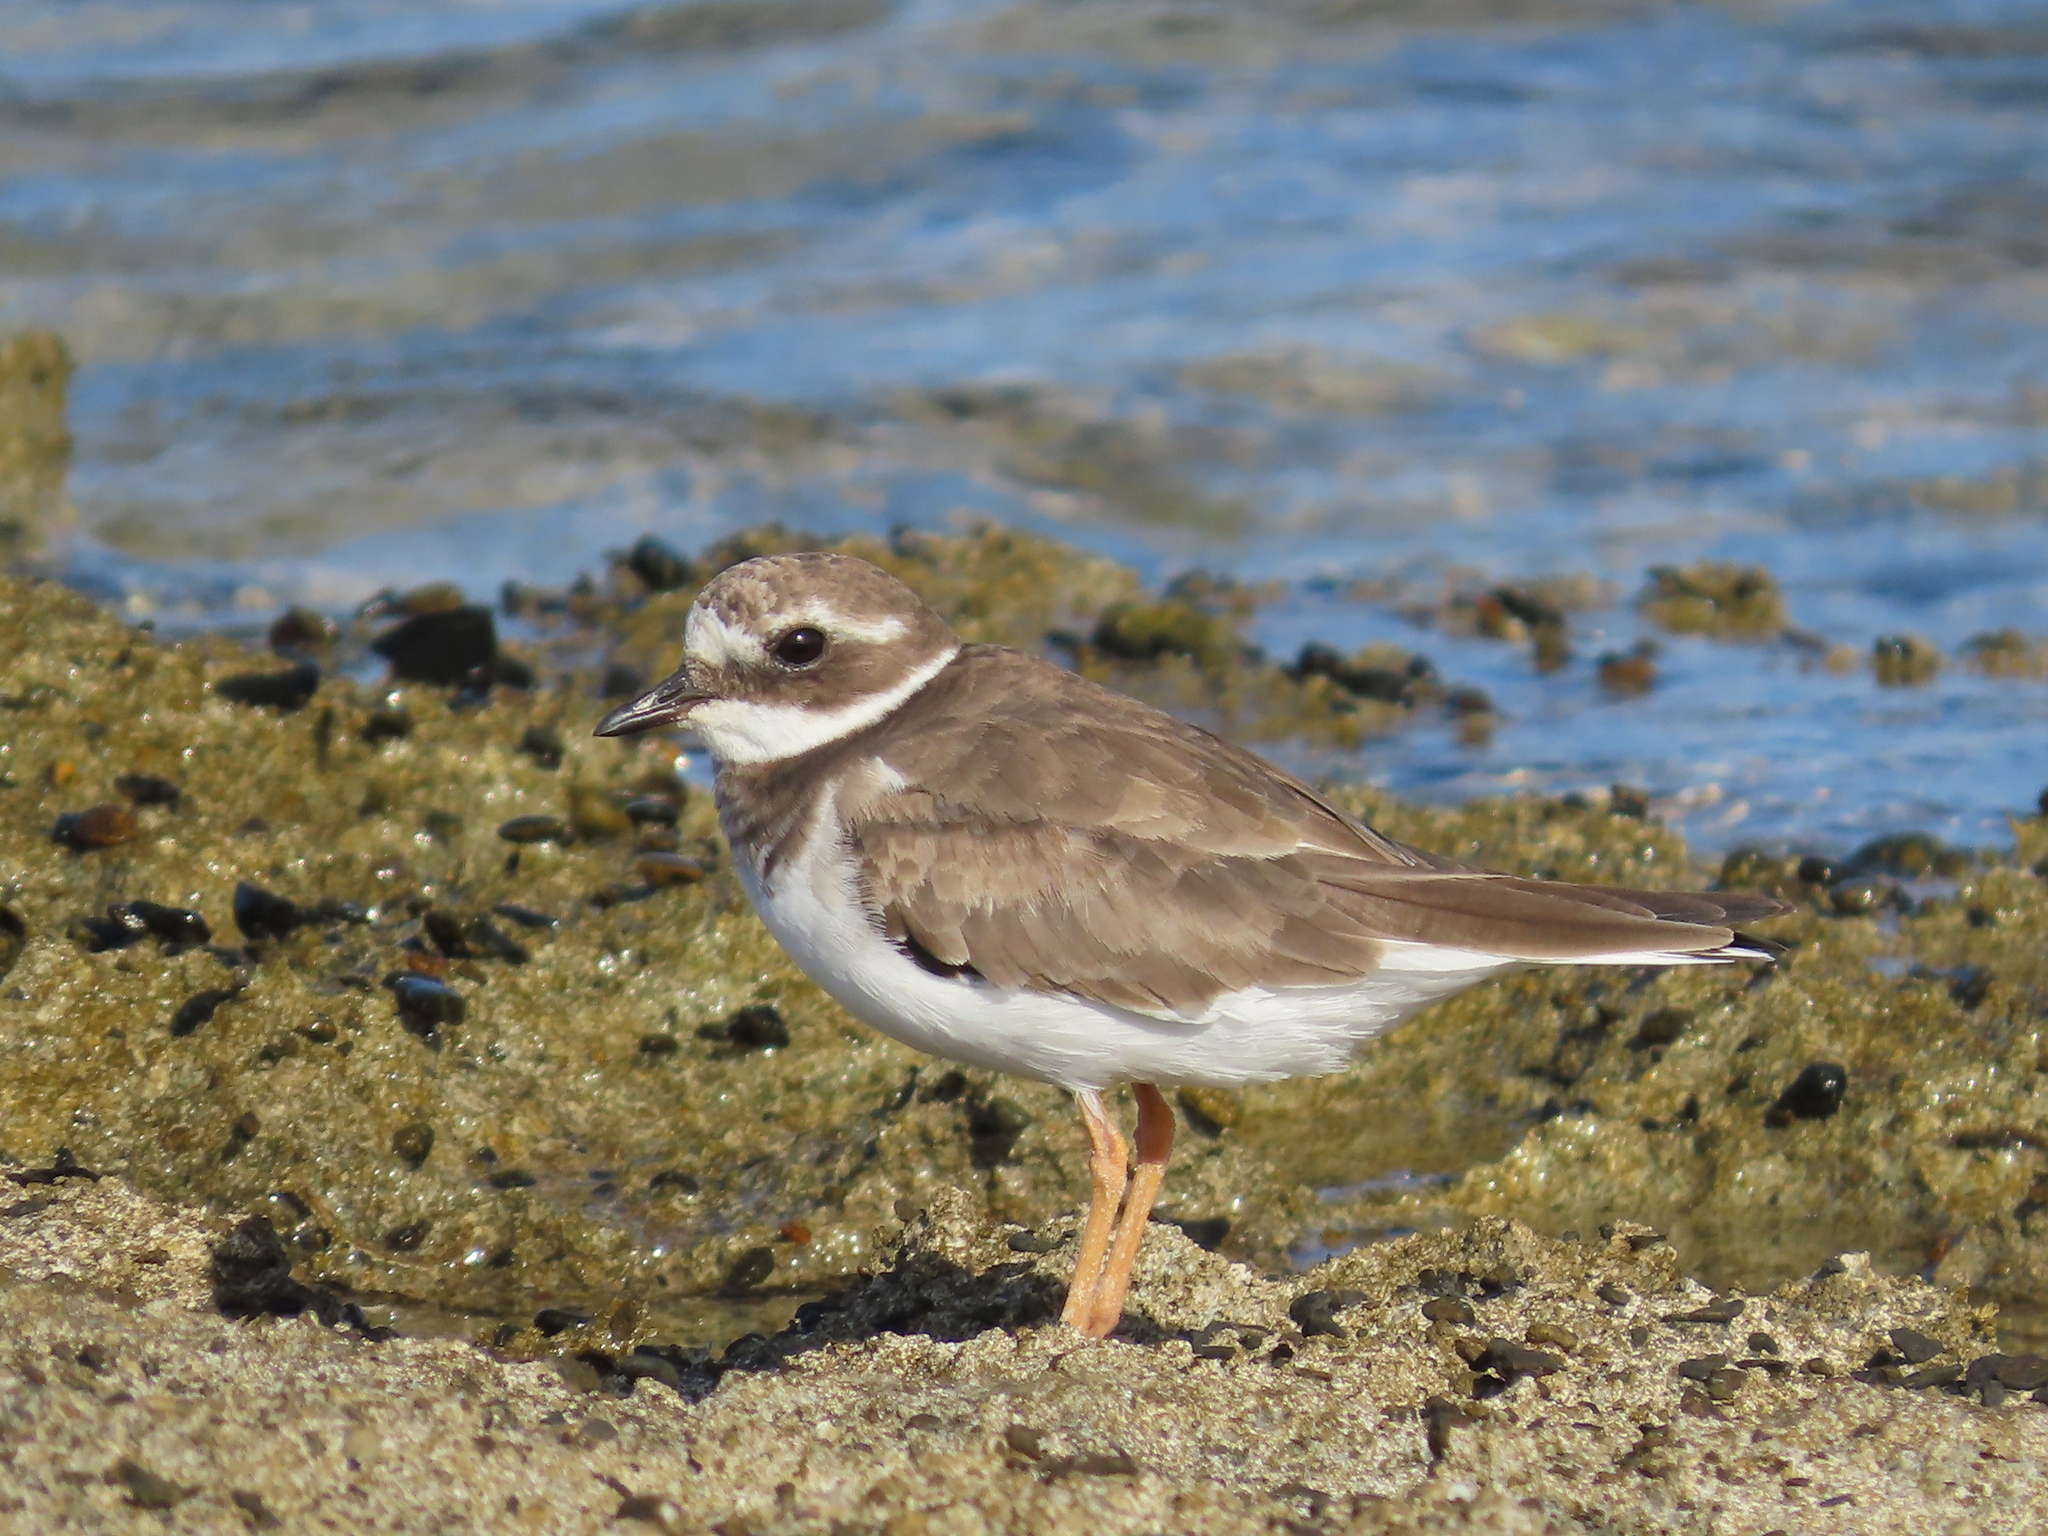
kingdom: Animalia
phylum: Chordata
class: Aves
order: Charadriiformes
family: Charadriidae
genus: Charadrius
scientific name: Charadrius hiaticula
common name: Common ringed plover
